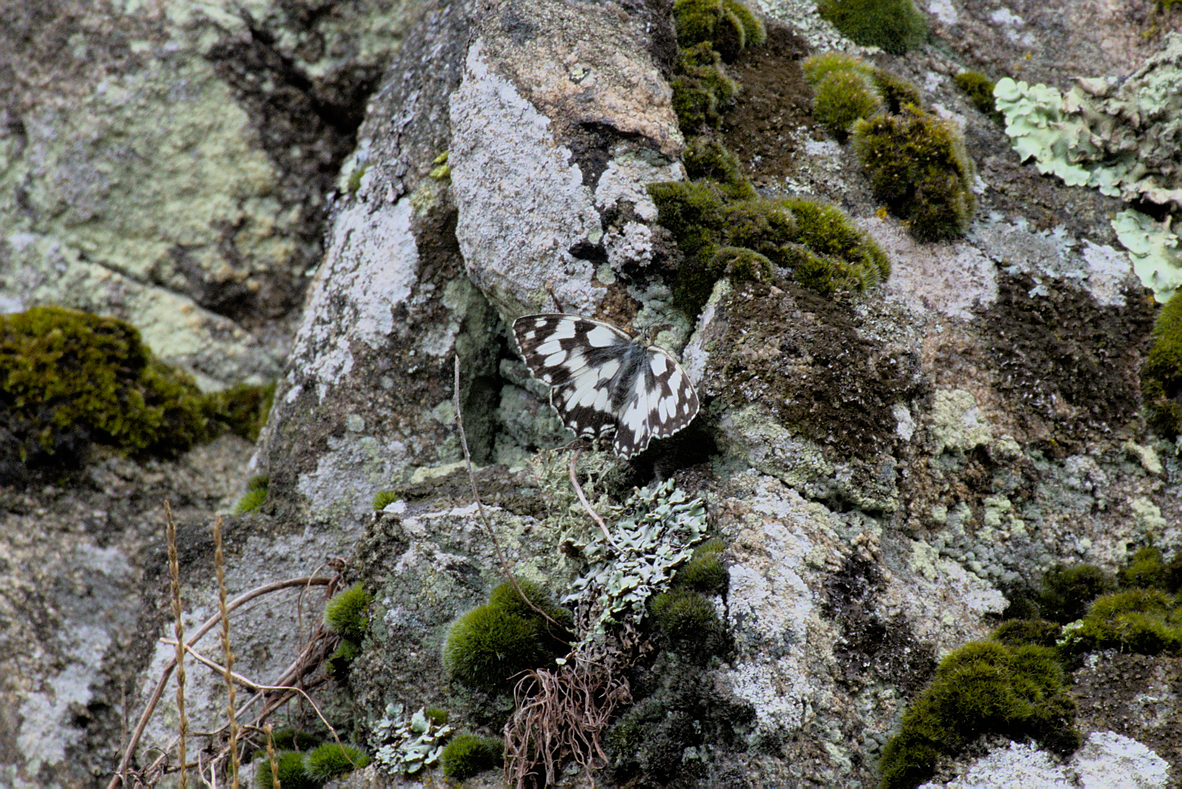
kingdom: Animalia
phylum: Arthropoda
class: Insecta
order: Lepidoptera
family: Nymphalidae
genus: Melanargia
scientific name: Melanargia galathea
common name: Marbled white
